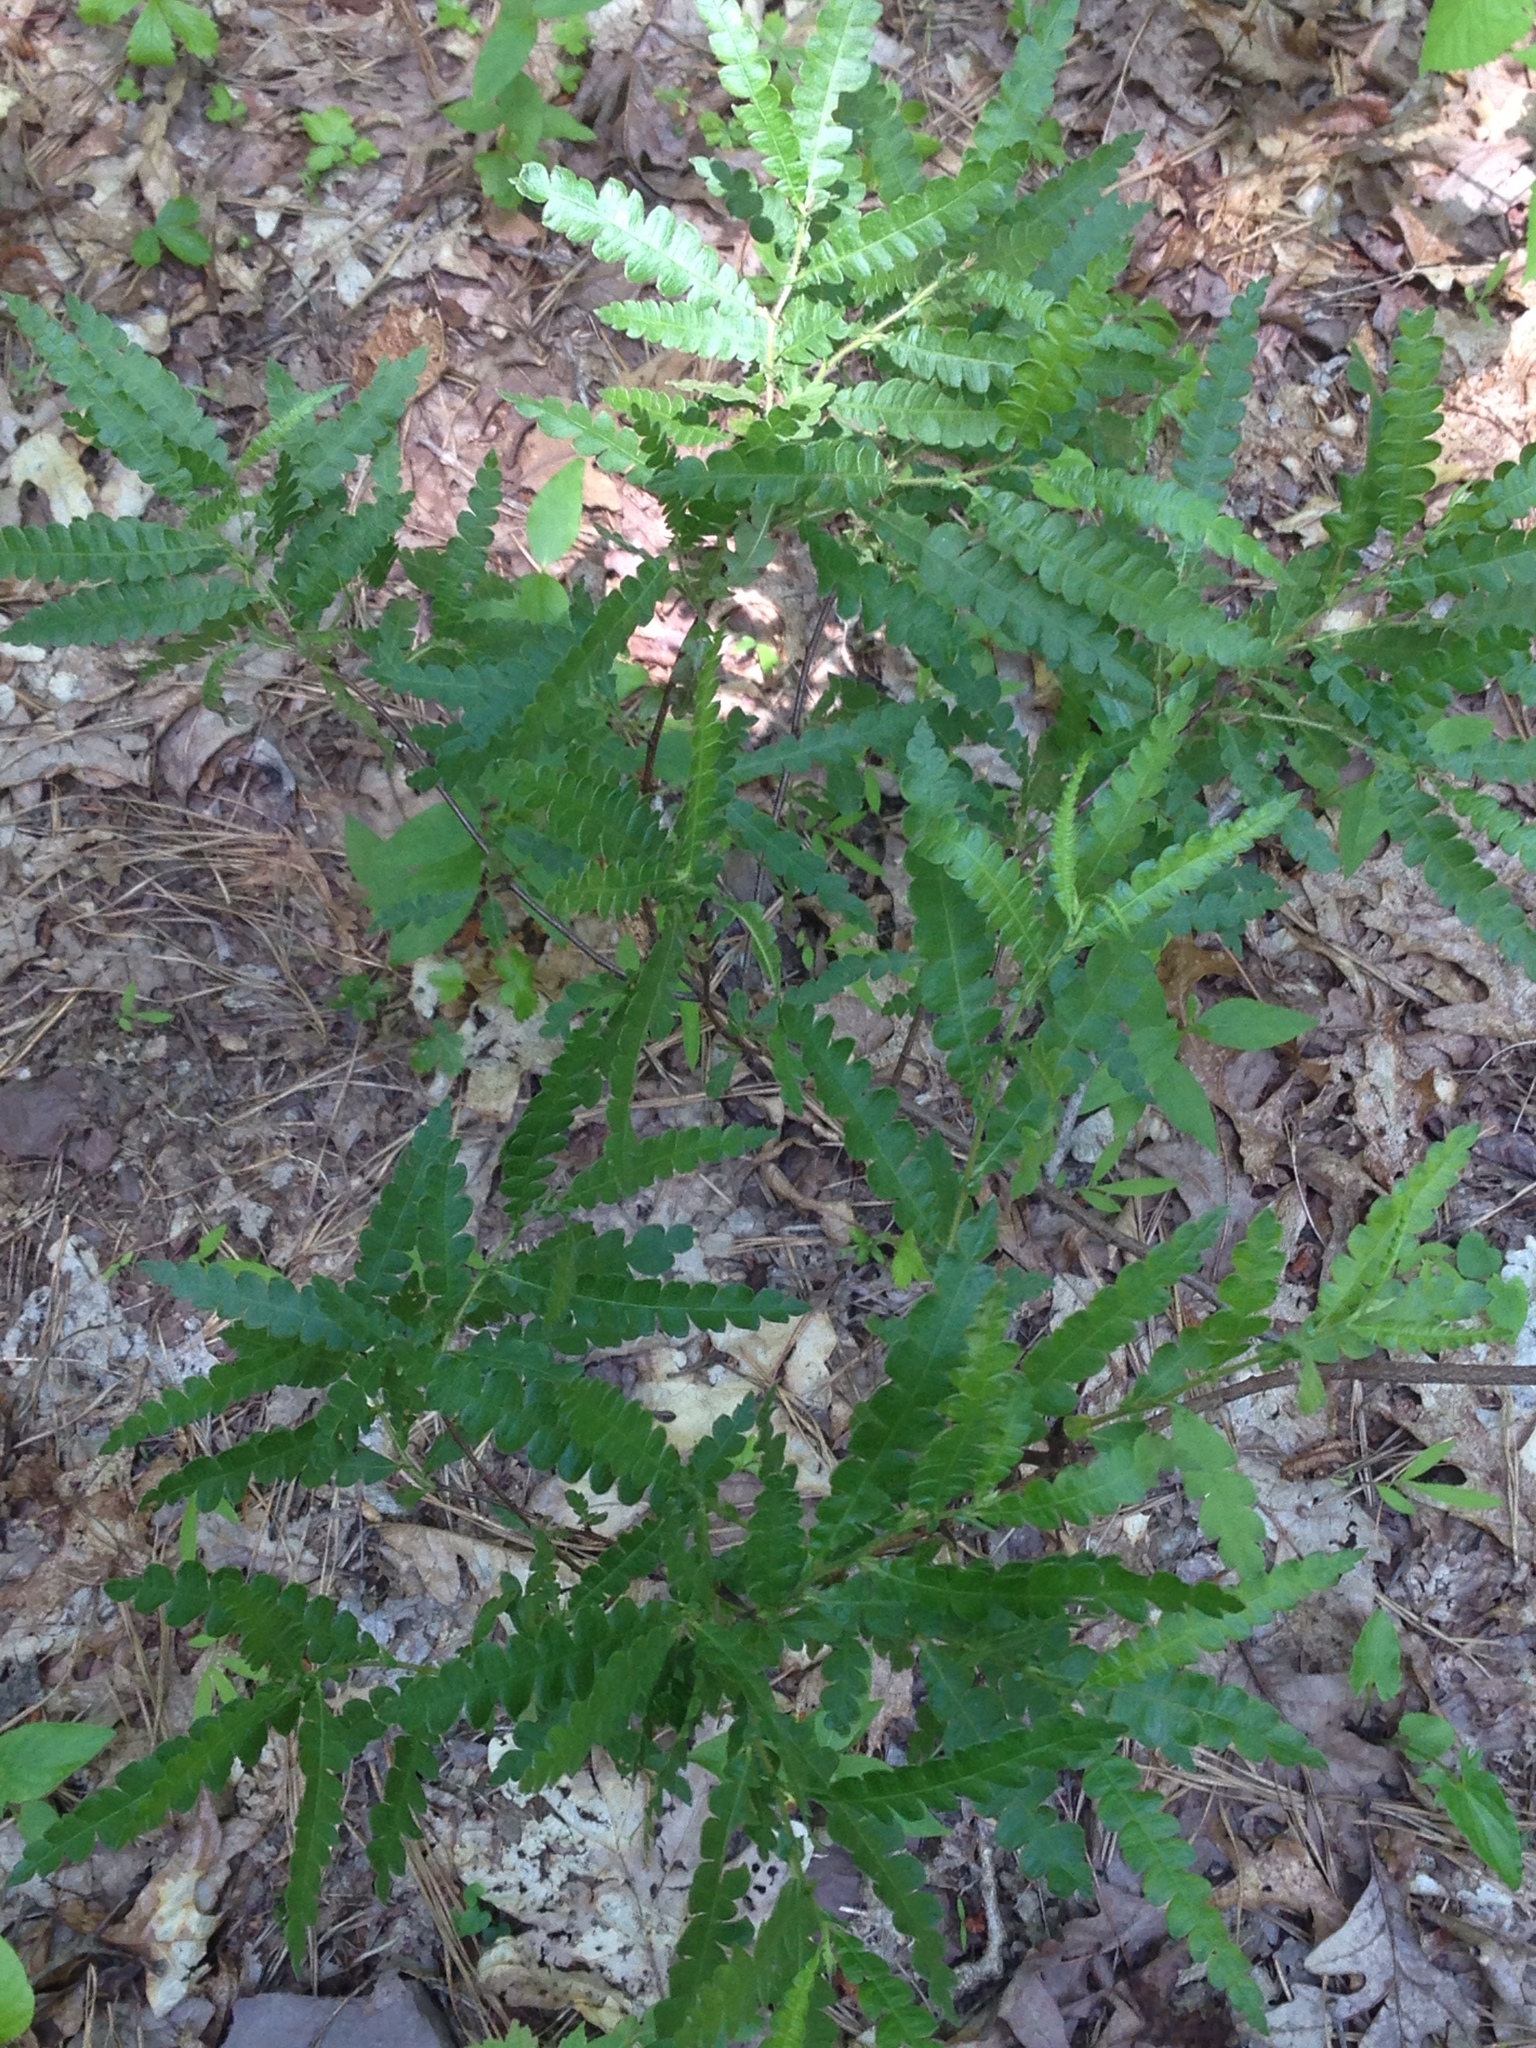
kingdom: Plantae
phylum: Tracheophyta
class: Magnoliopsida
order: Fagales
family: Myricaceae
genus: Comptonia
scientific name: Comptonia peregrina
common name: Sweet-fern
